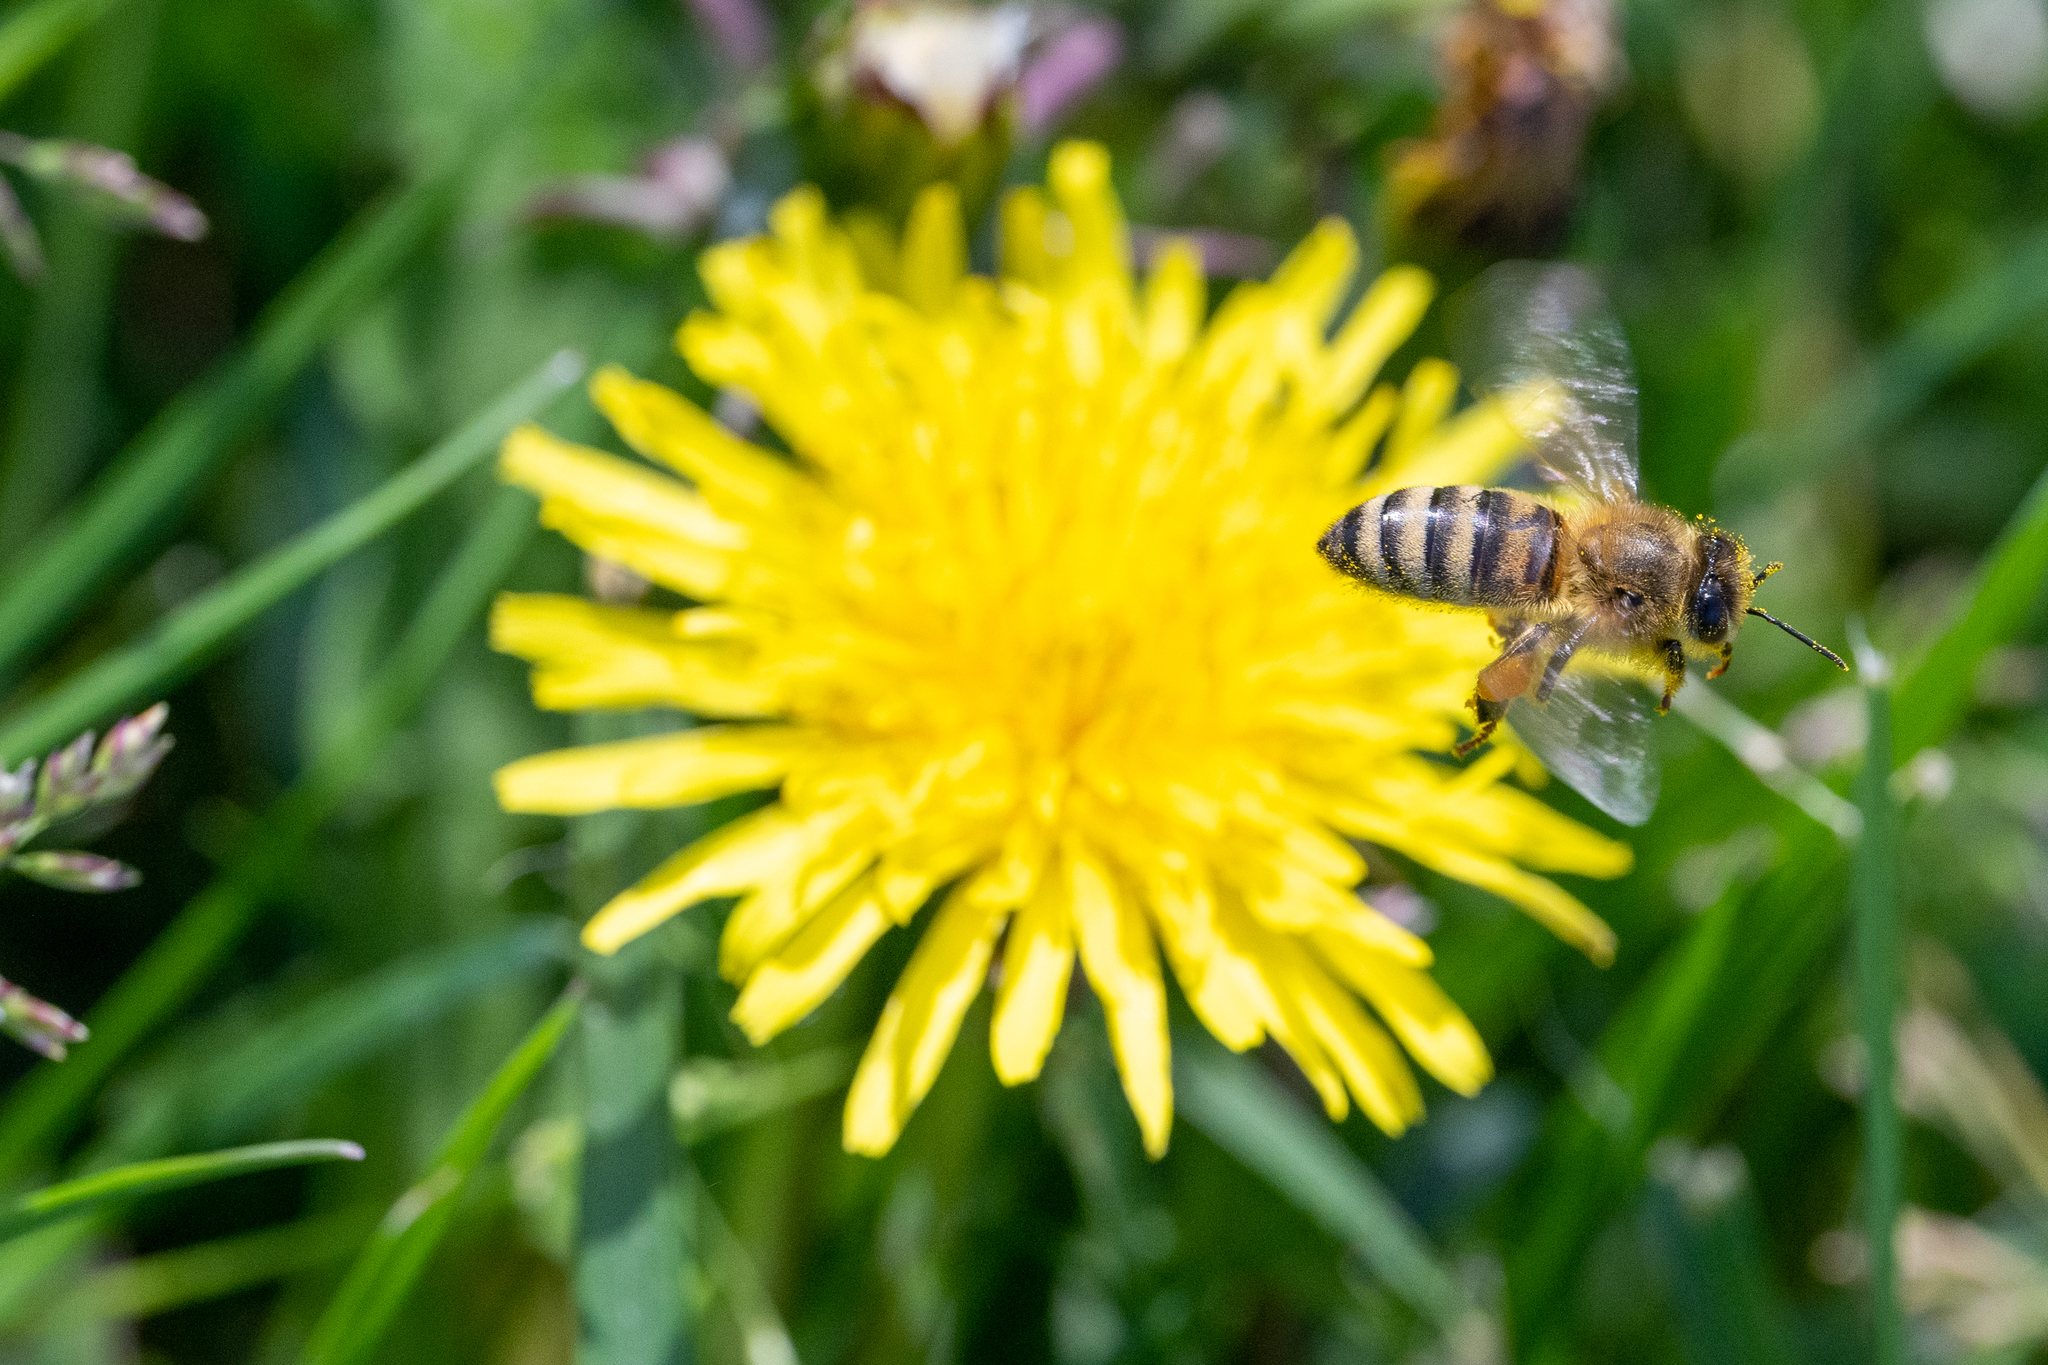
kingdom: Animalia
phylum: Arthropoda
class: Insecta
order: Hymenoptera
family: Apidae
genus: Apis
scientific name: Apis mellifera
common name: Honey bee
